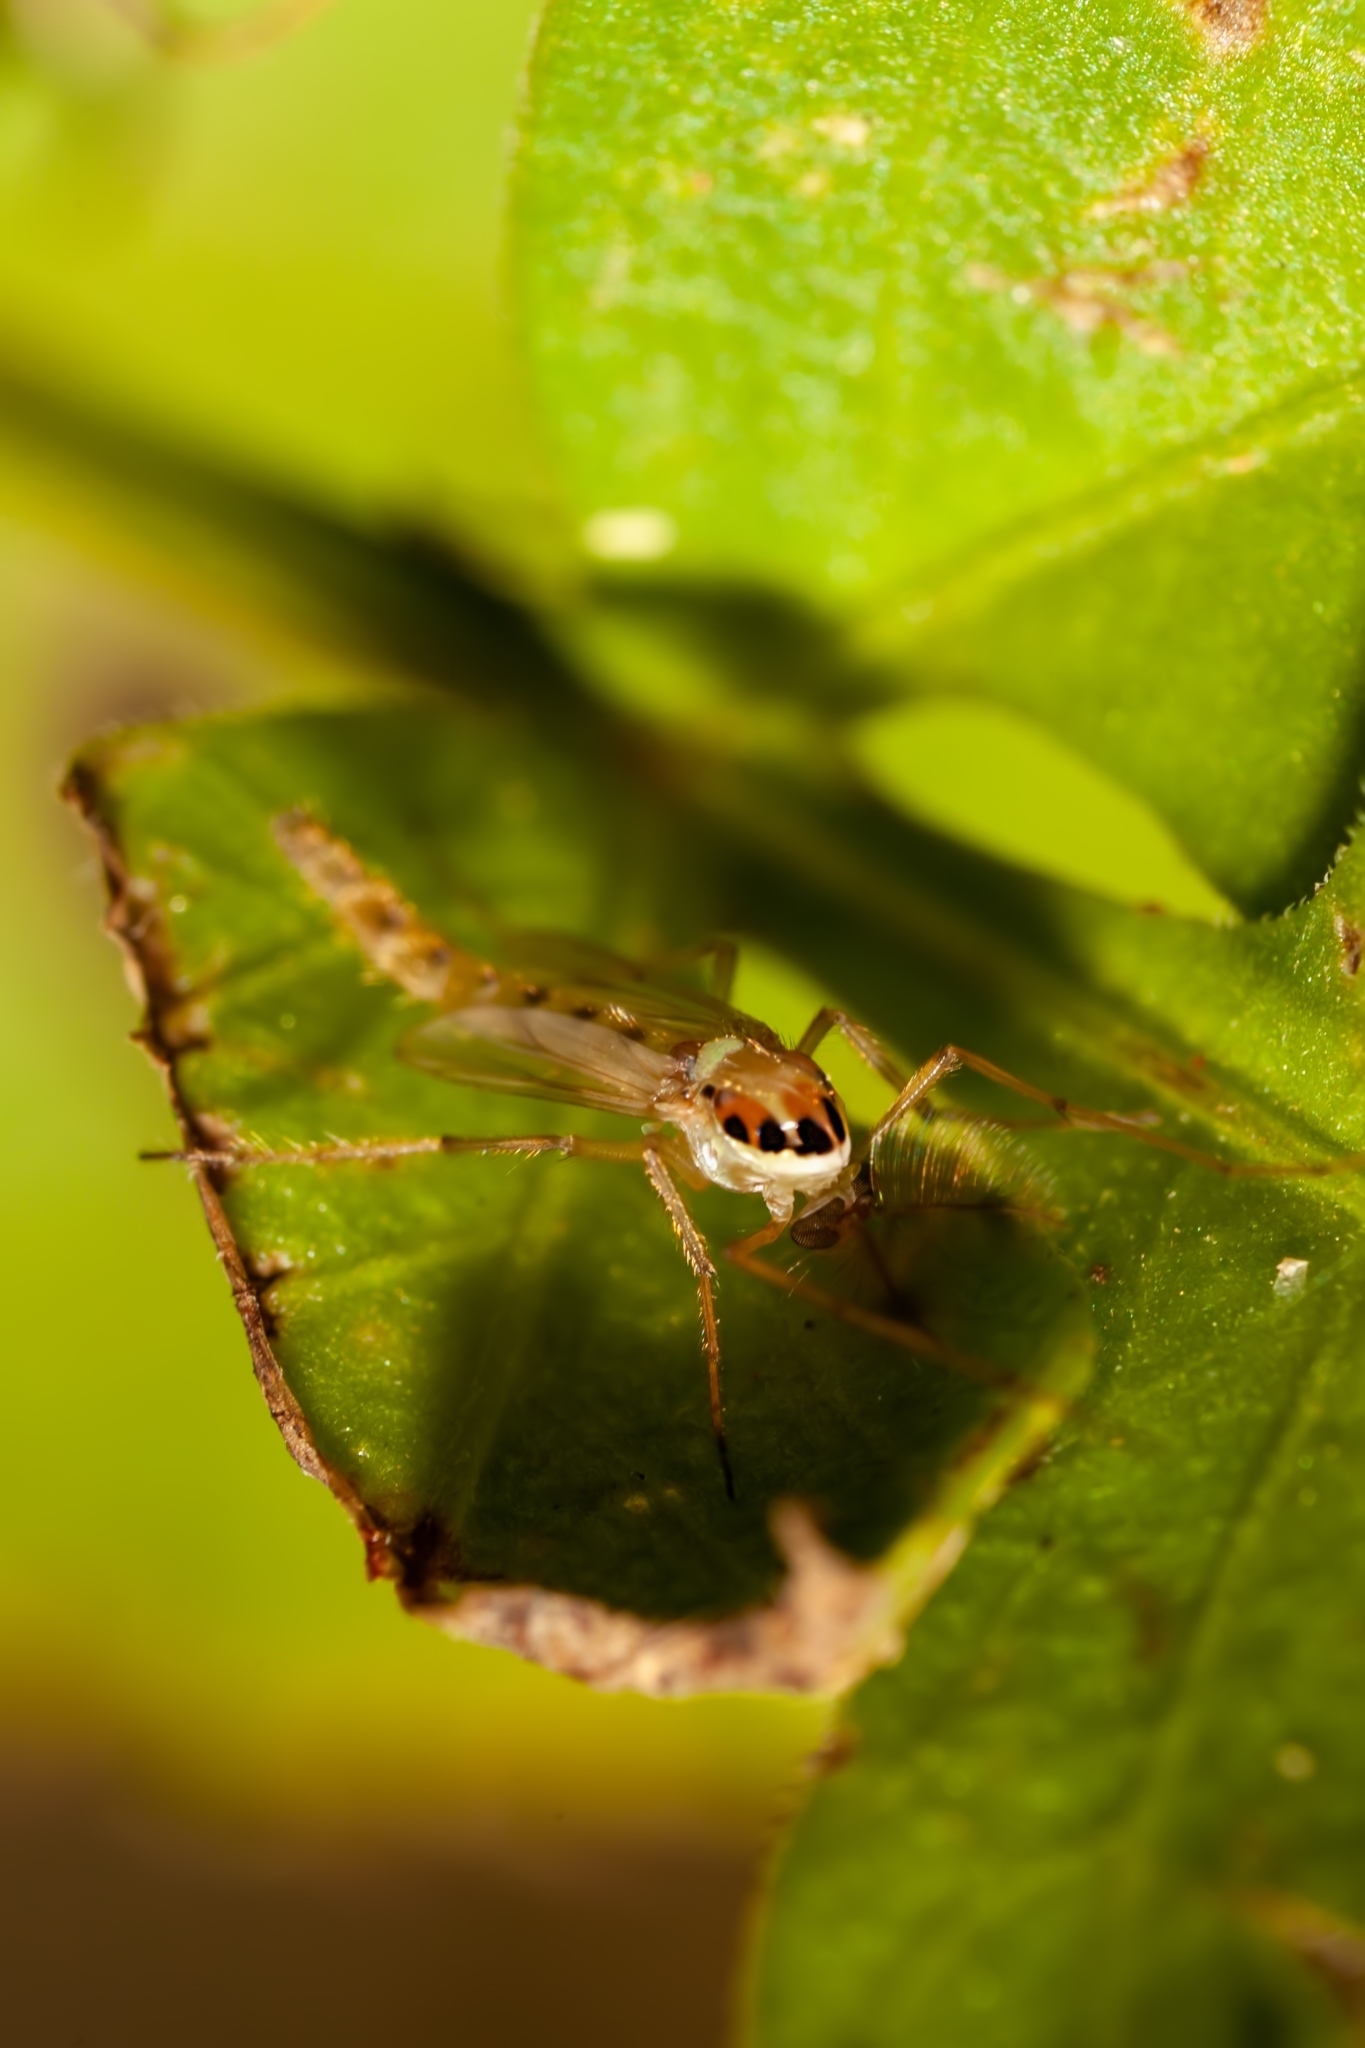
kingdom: Animalia
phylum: Arthropoda
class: Insecta
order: Diptera
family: Chironomidae
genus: Goeldichironomus
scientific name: Goeldichironomus carus
